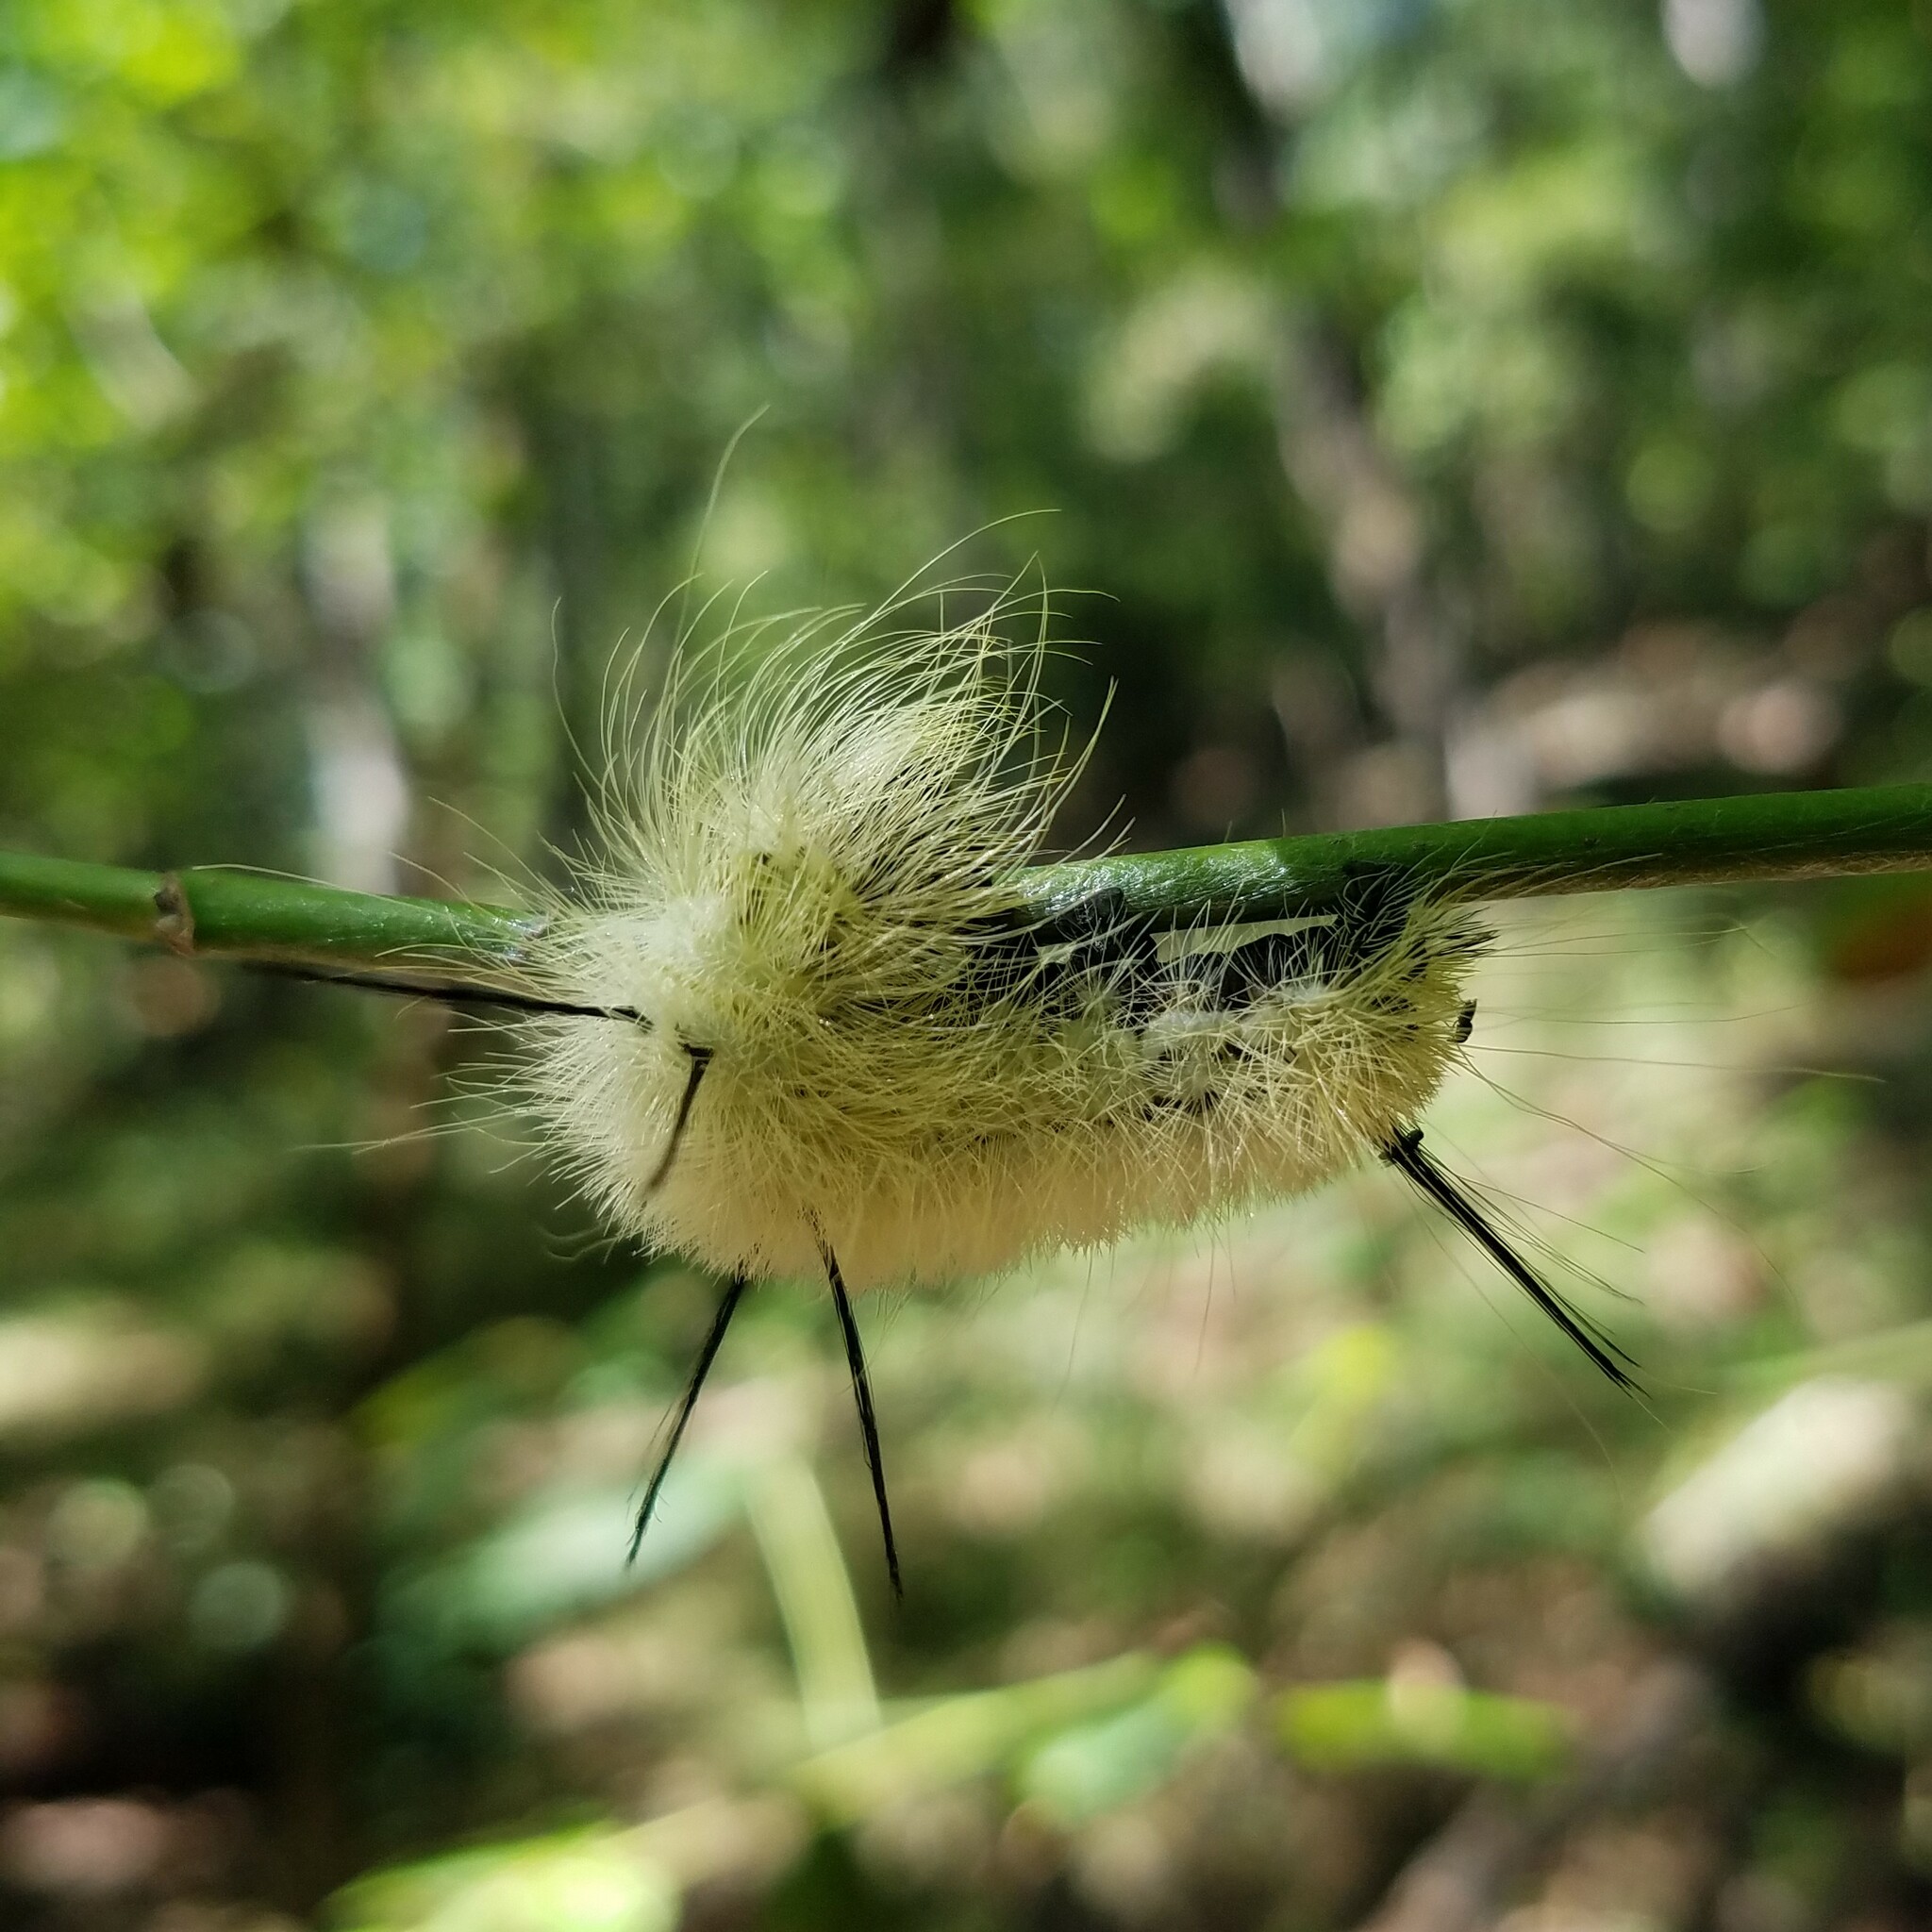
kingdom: Animalia
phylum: Arthropoda
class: Insecta
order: Lepidoptera
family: Noctuidae
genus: Acronicta
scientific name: Acronicta americana
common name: American dagger
